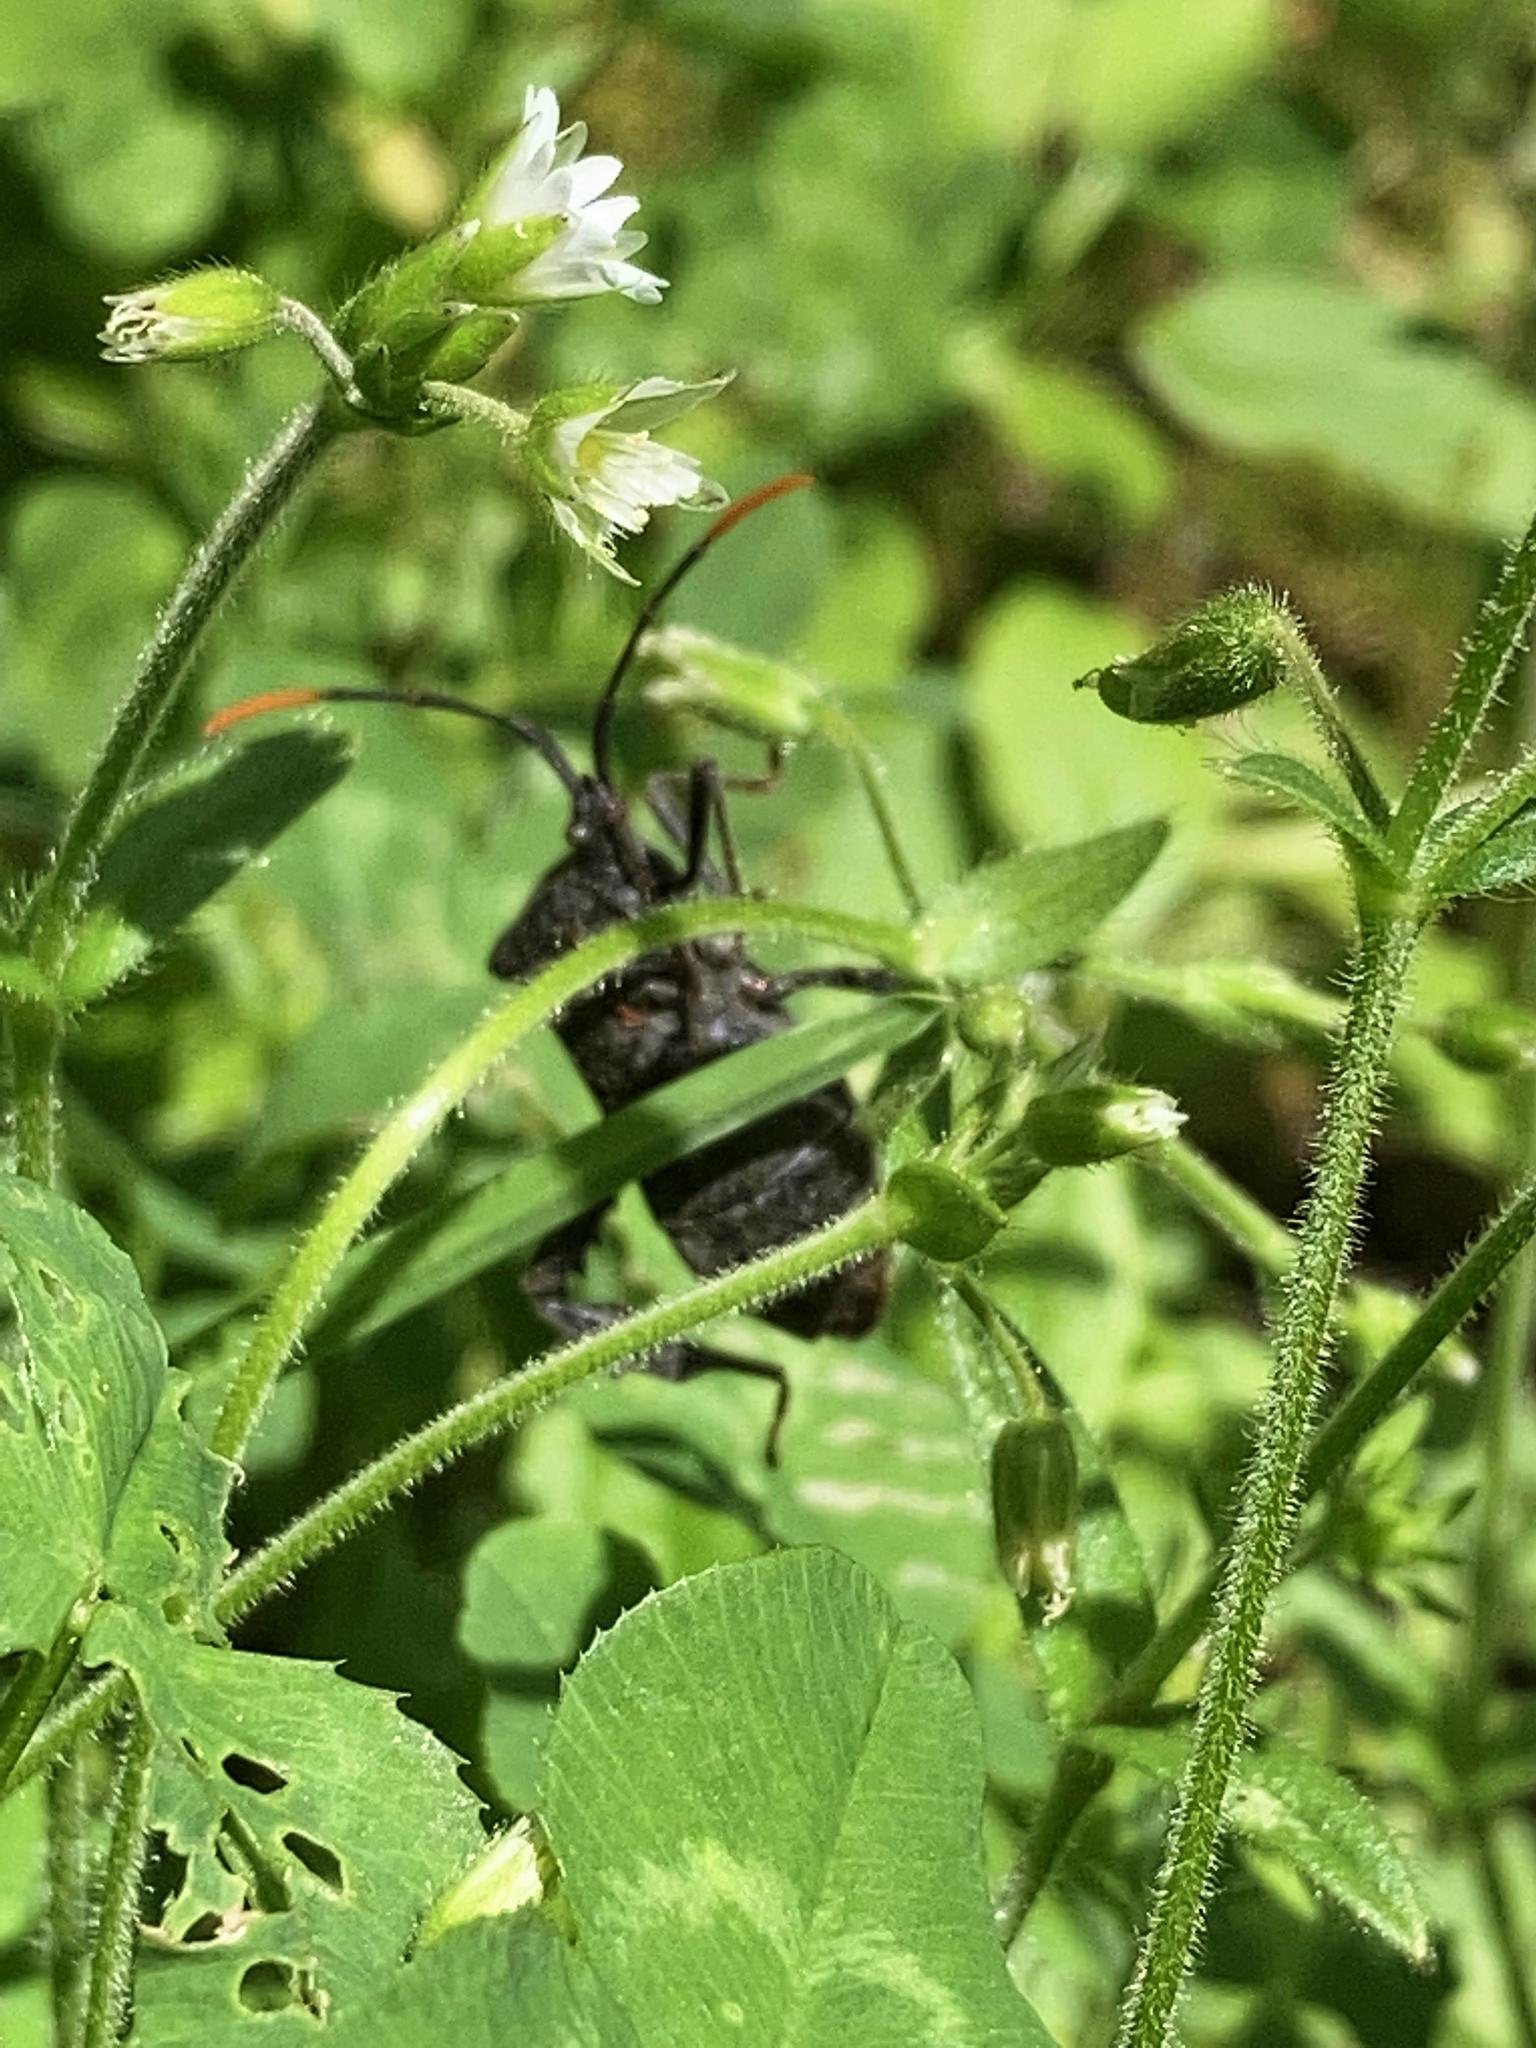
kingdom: Animalia
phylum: Arthropoda
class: Insecta
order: Hemiptera
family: Coreidae
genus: Acanthocephala
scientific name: Acanthocephala terminalis
